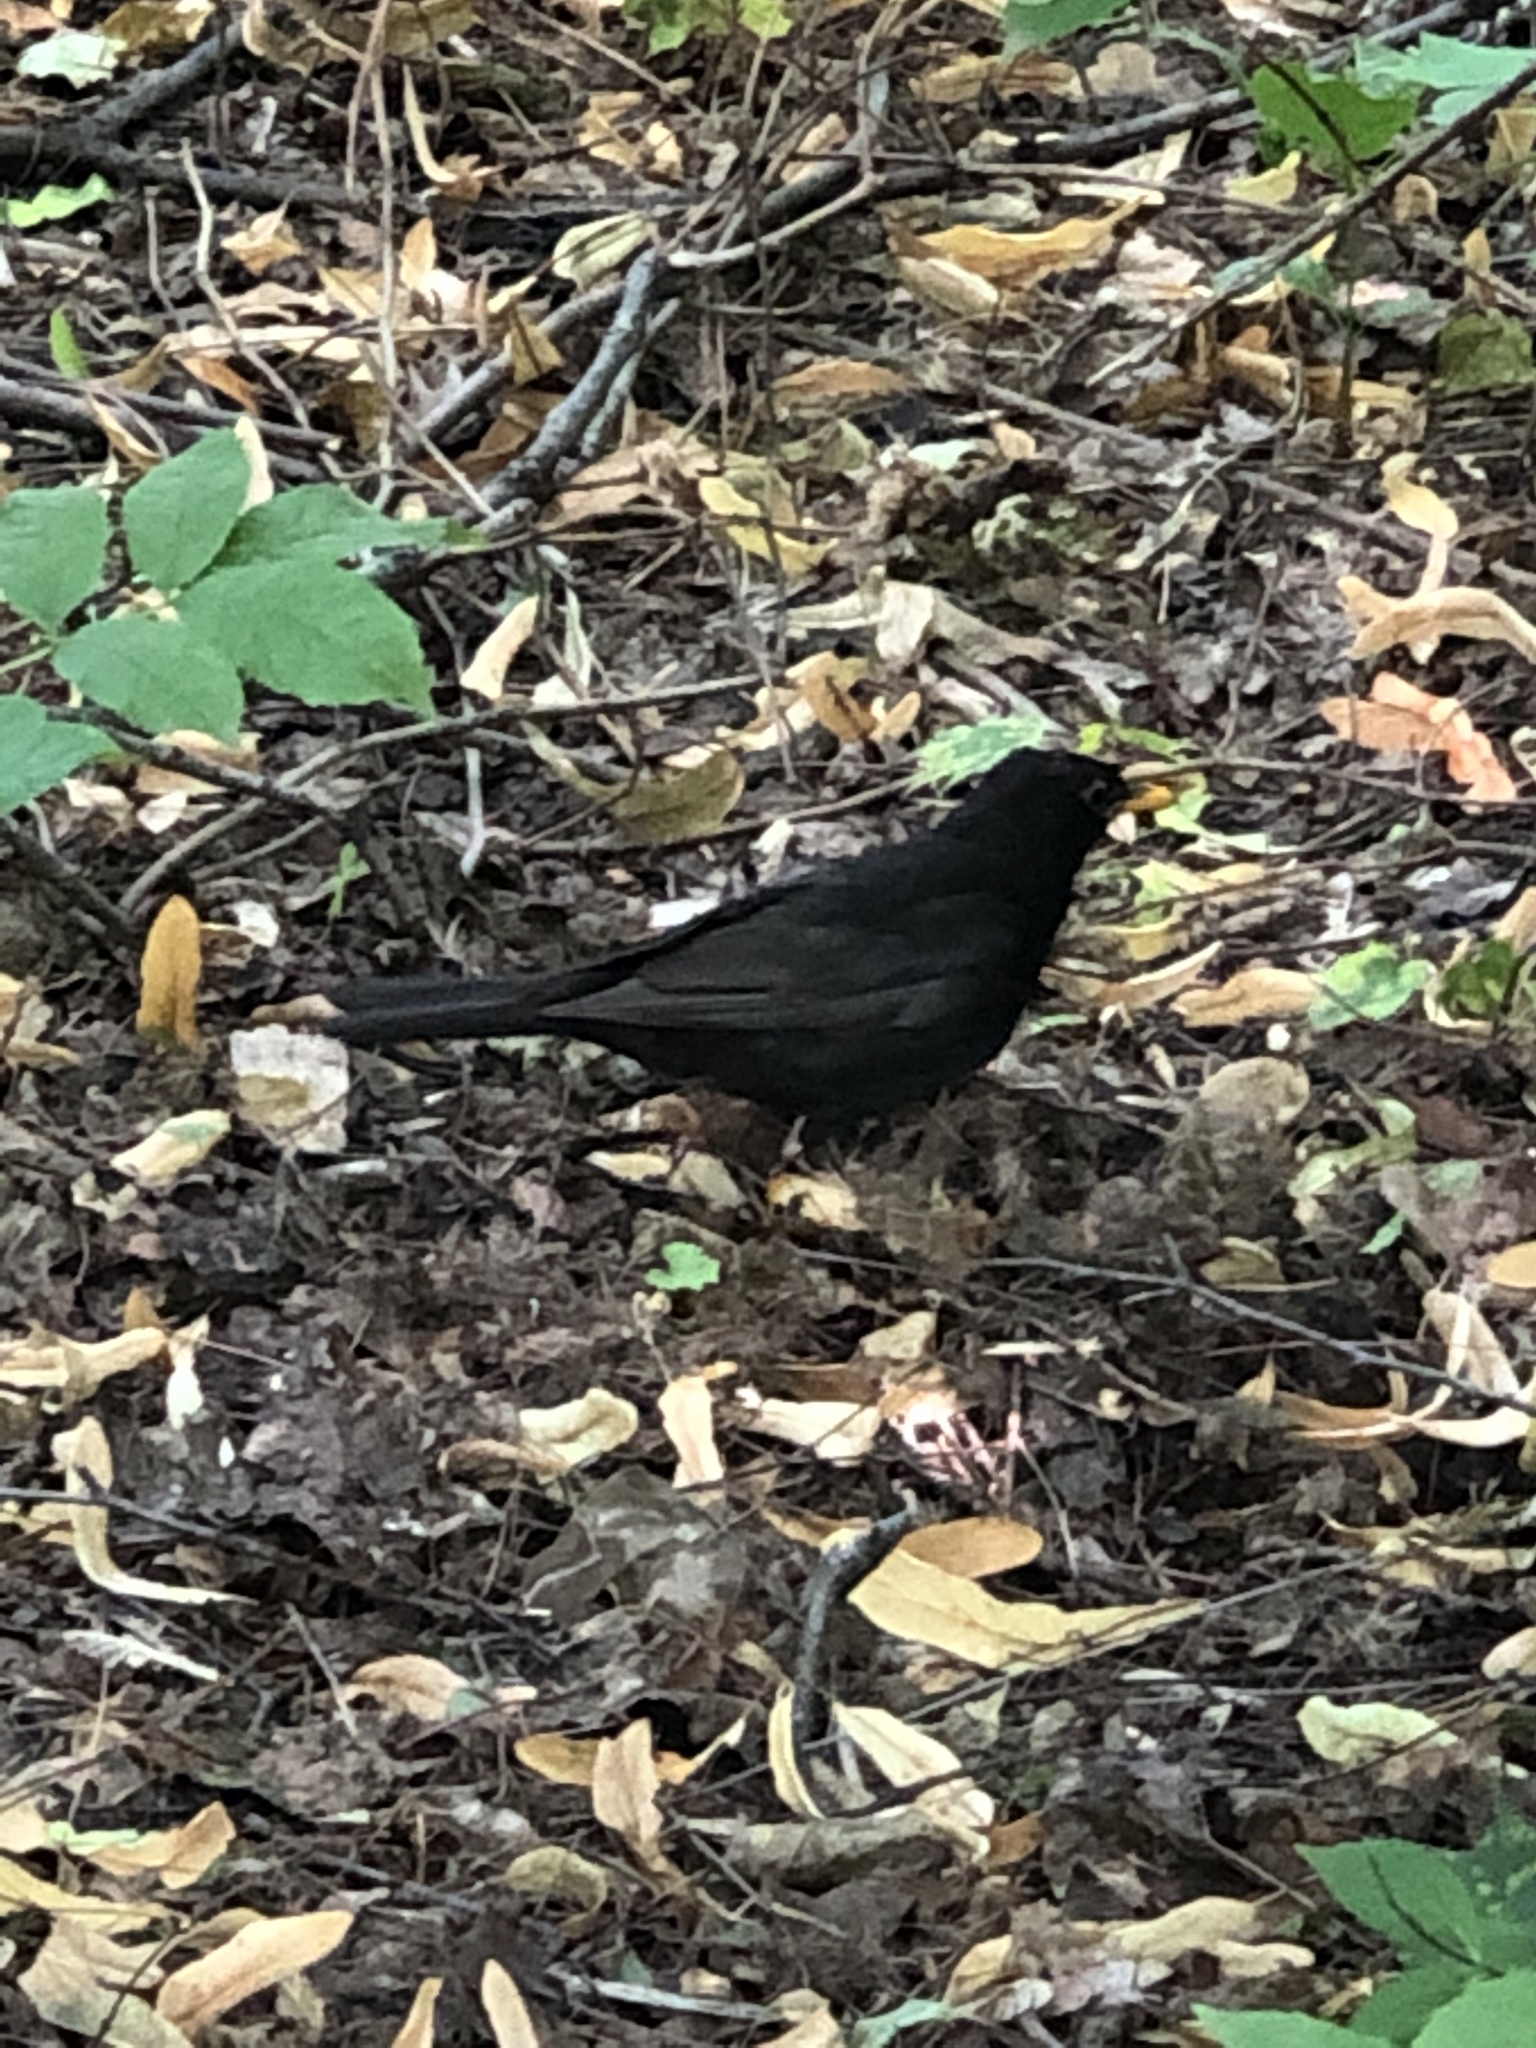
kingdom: Animalia
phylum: Chordata
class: Aves
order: Passeriformes
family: Turdidae
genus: Turdus
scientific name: Turdus merula
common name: Common blackbird
